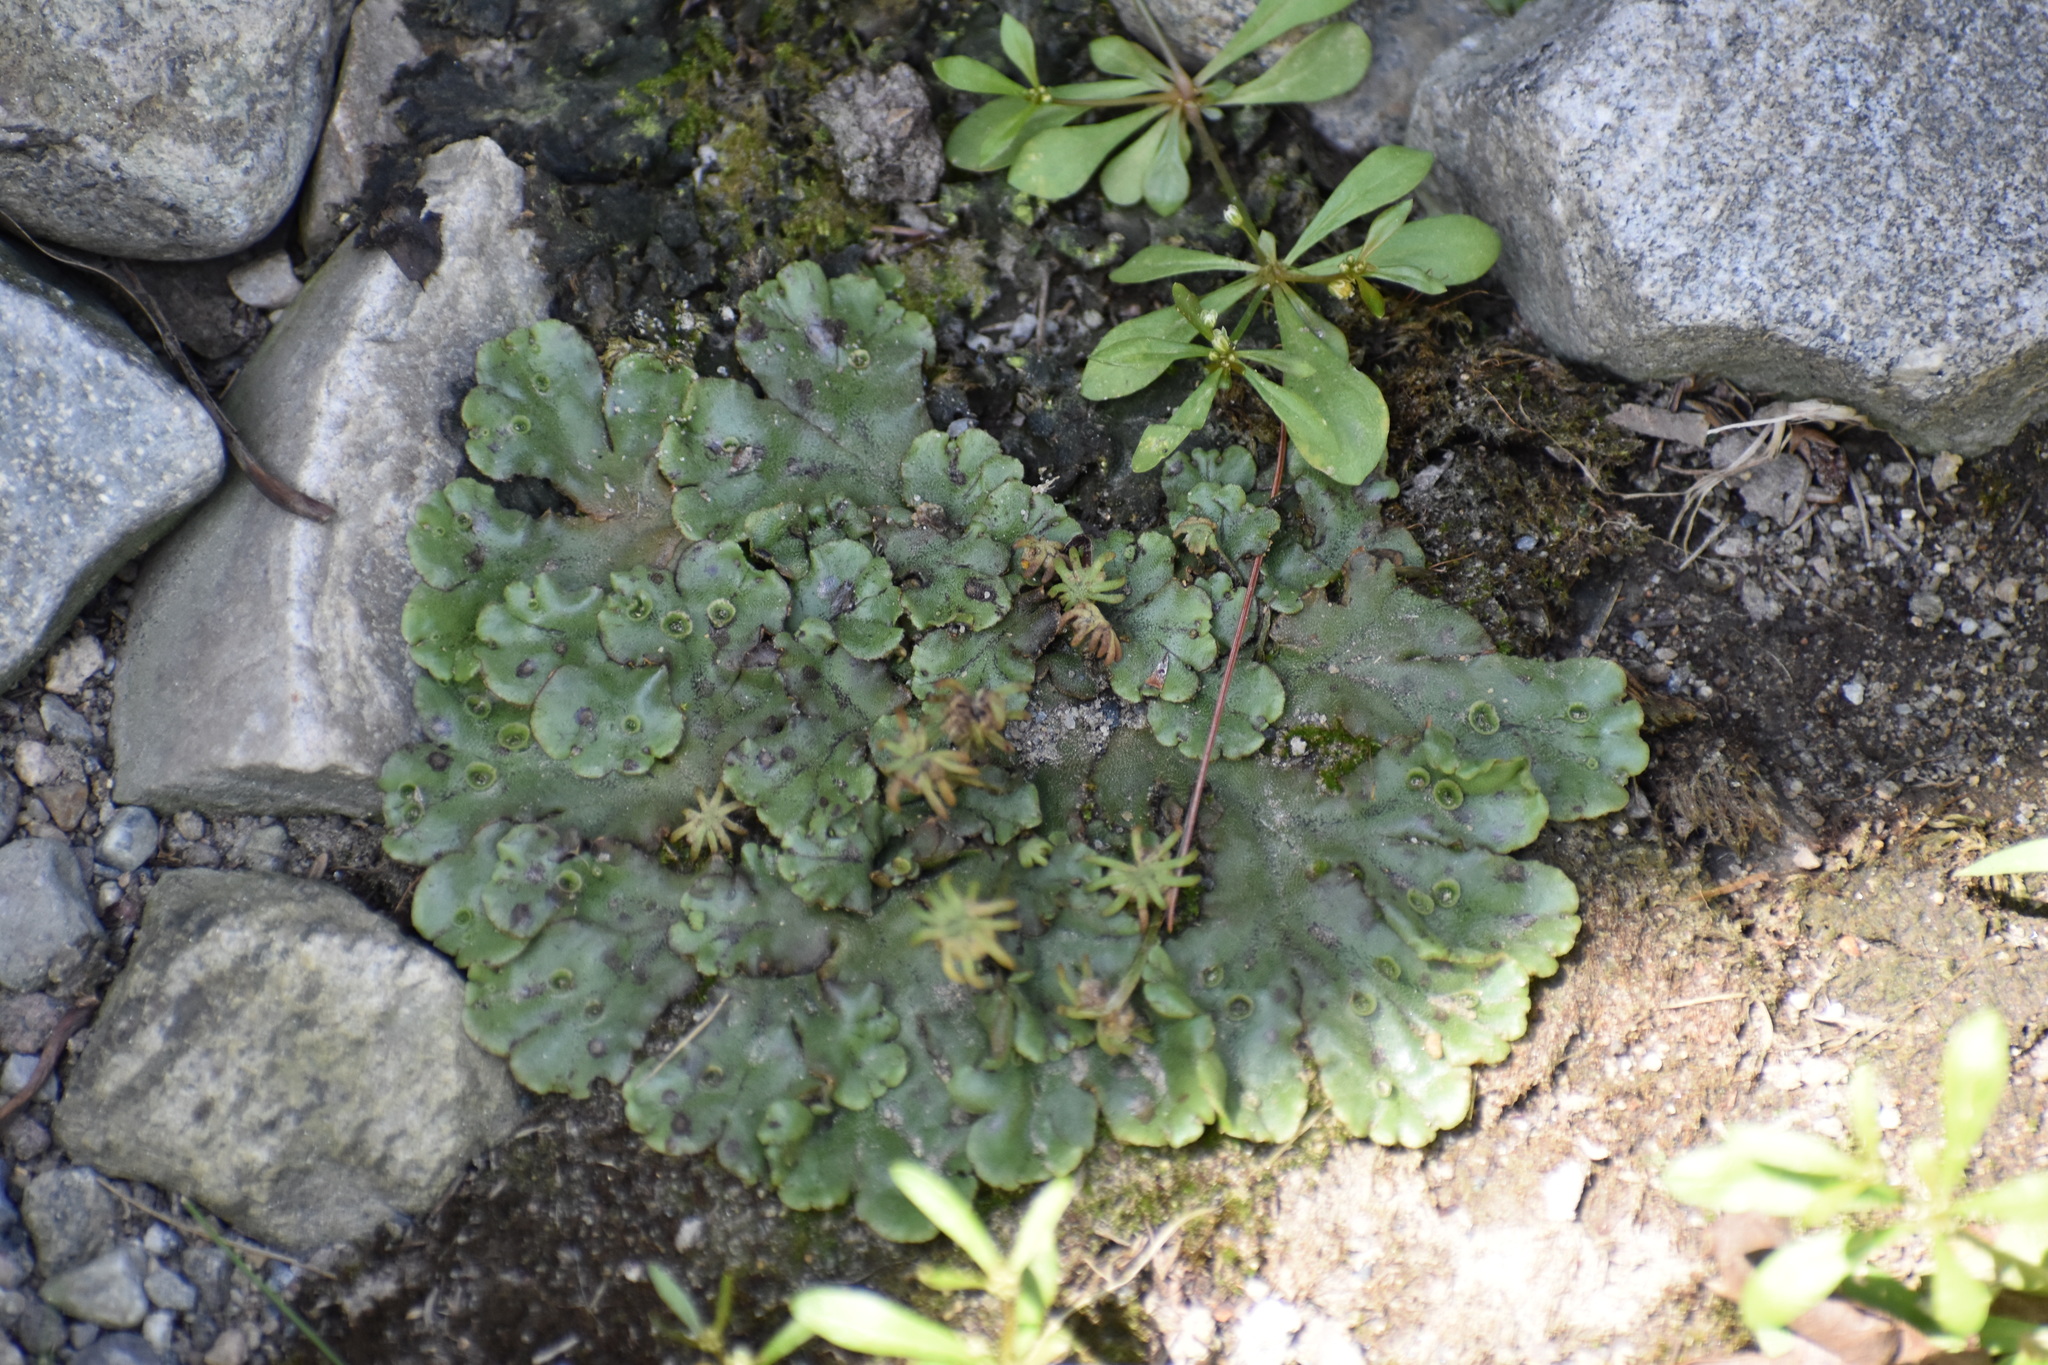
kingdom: Plantae
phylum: Marchantiophyta
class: Marchantiopsida
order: Marchantiales
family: Marchantiaceae
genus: Marchantia
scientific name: Marchantia polymorpha
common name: Common liverwort
